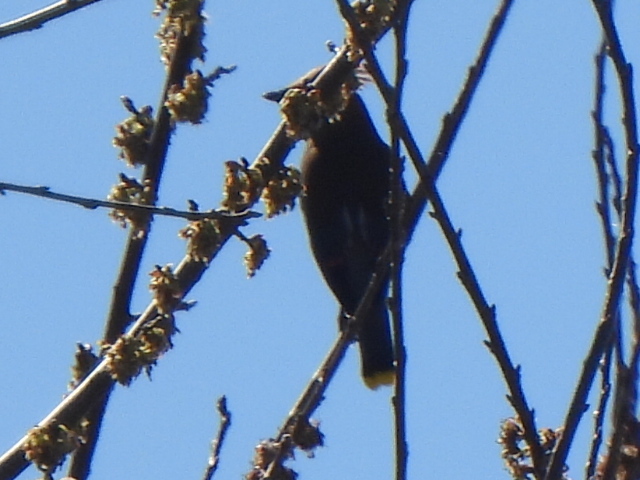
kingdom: Animalia
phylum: Chordata
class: Aves
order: Passeriformes
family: Bombycillidae
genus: Bombycilla
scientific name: Bombycilla cedrorum
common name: Cedar waxwing
